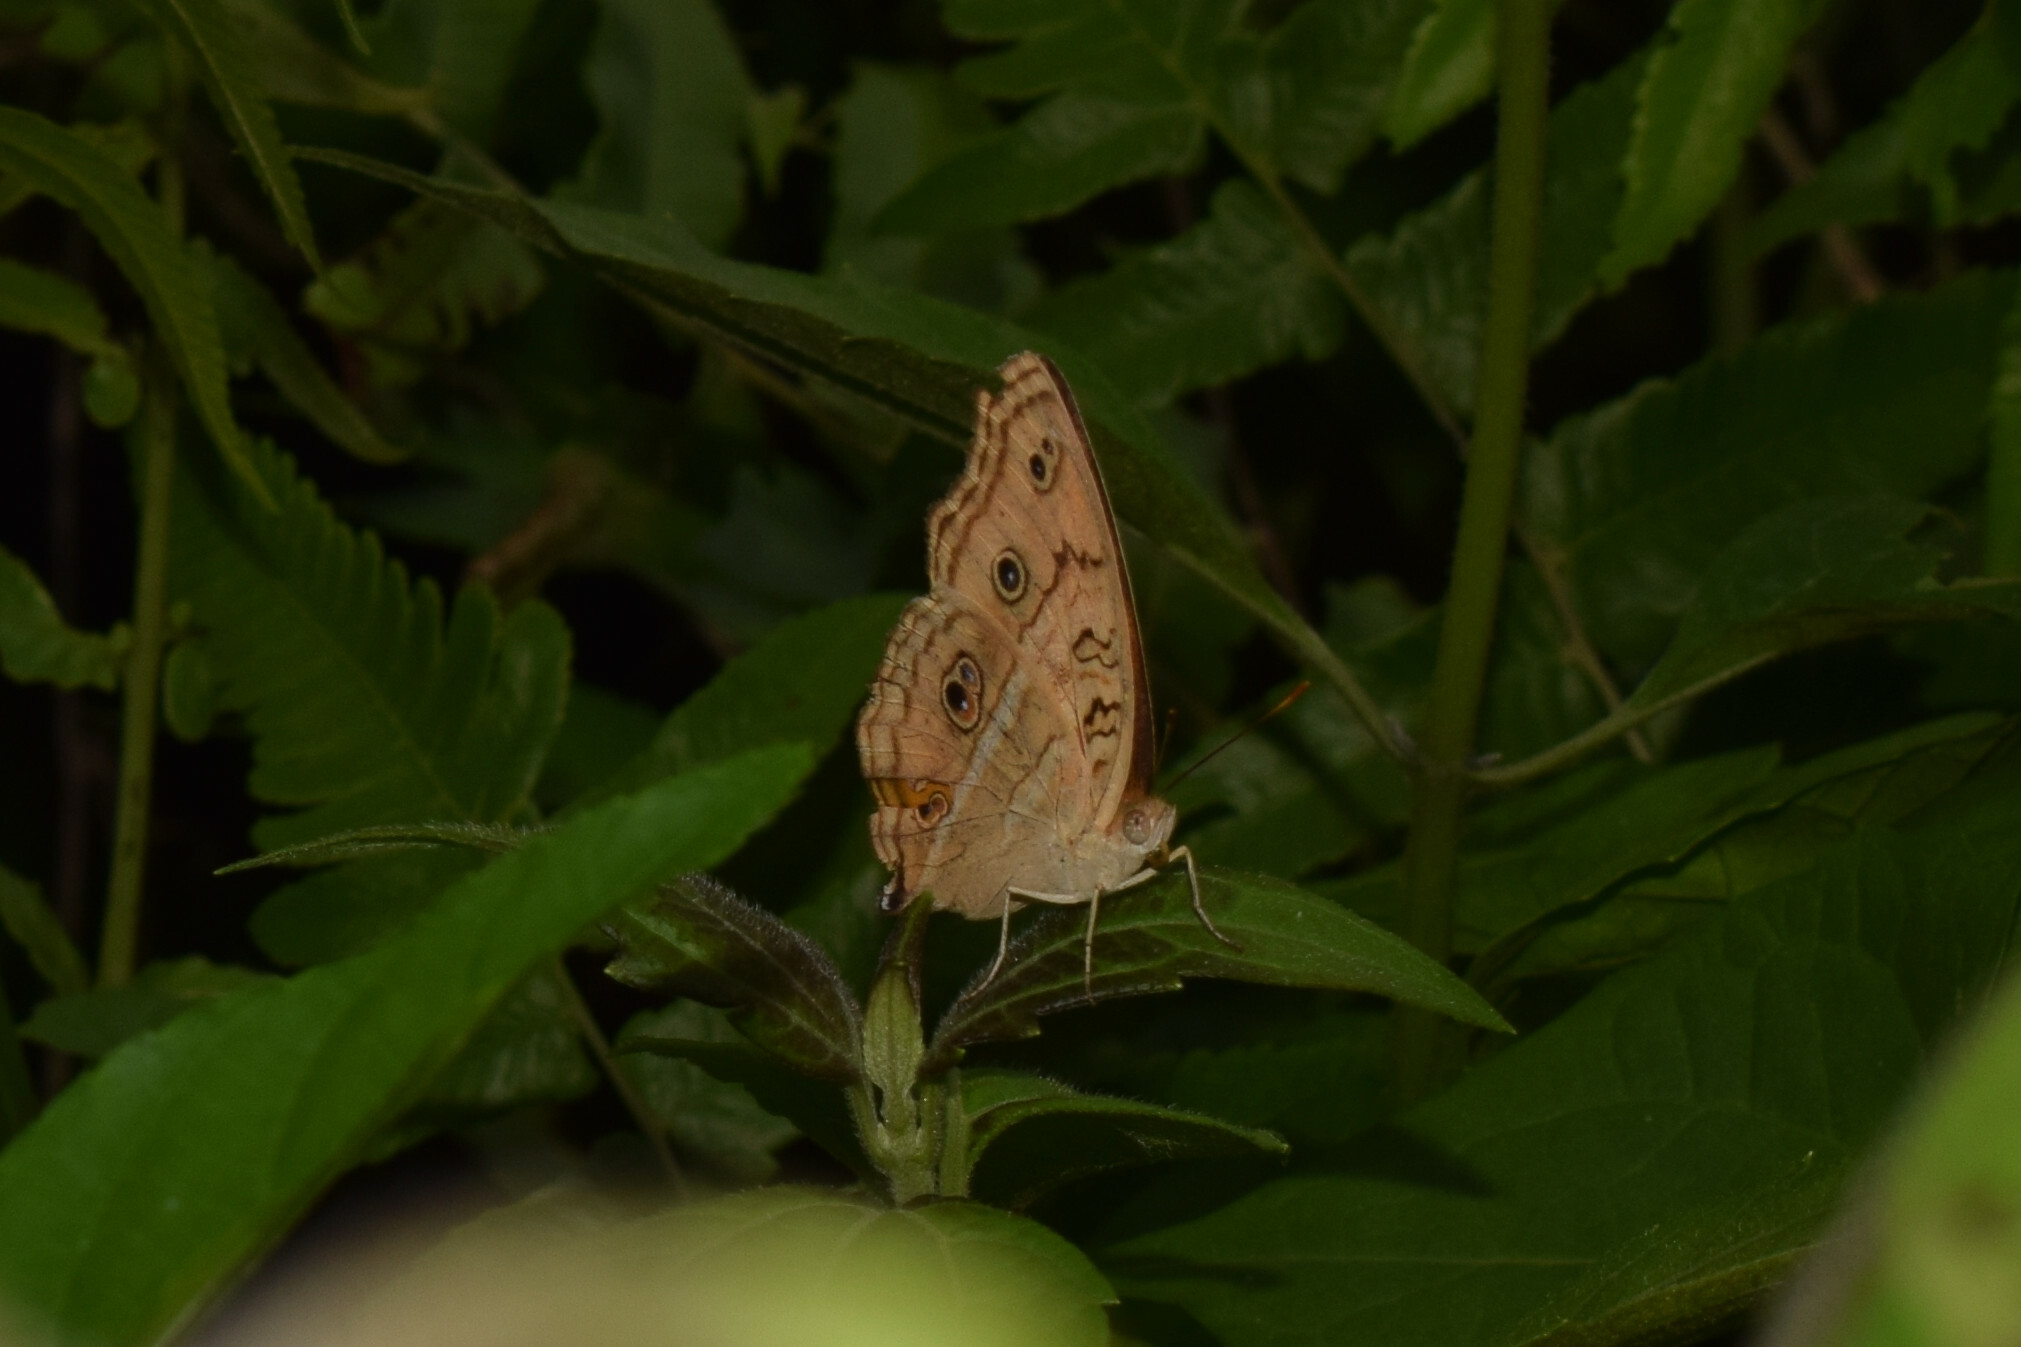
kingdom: Animalia
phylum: Arthropoda
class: Insecta
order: Lepidoptera
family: Nymphalidae
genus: Junonia
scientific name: Junonia almana
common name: Peacock pansy
